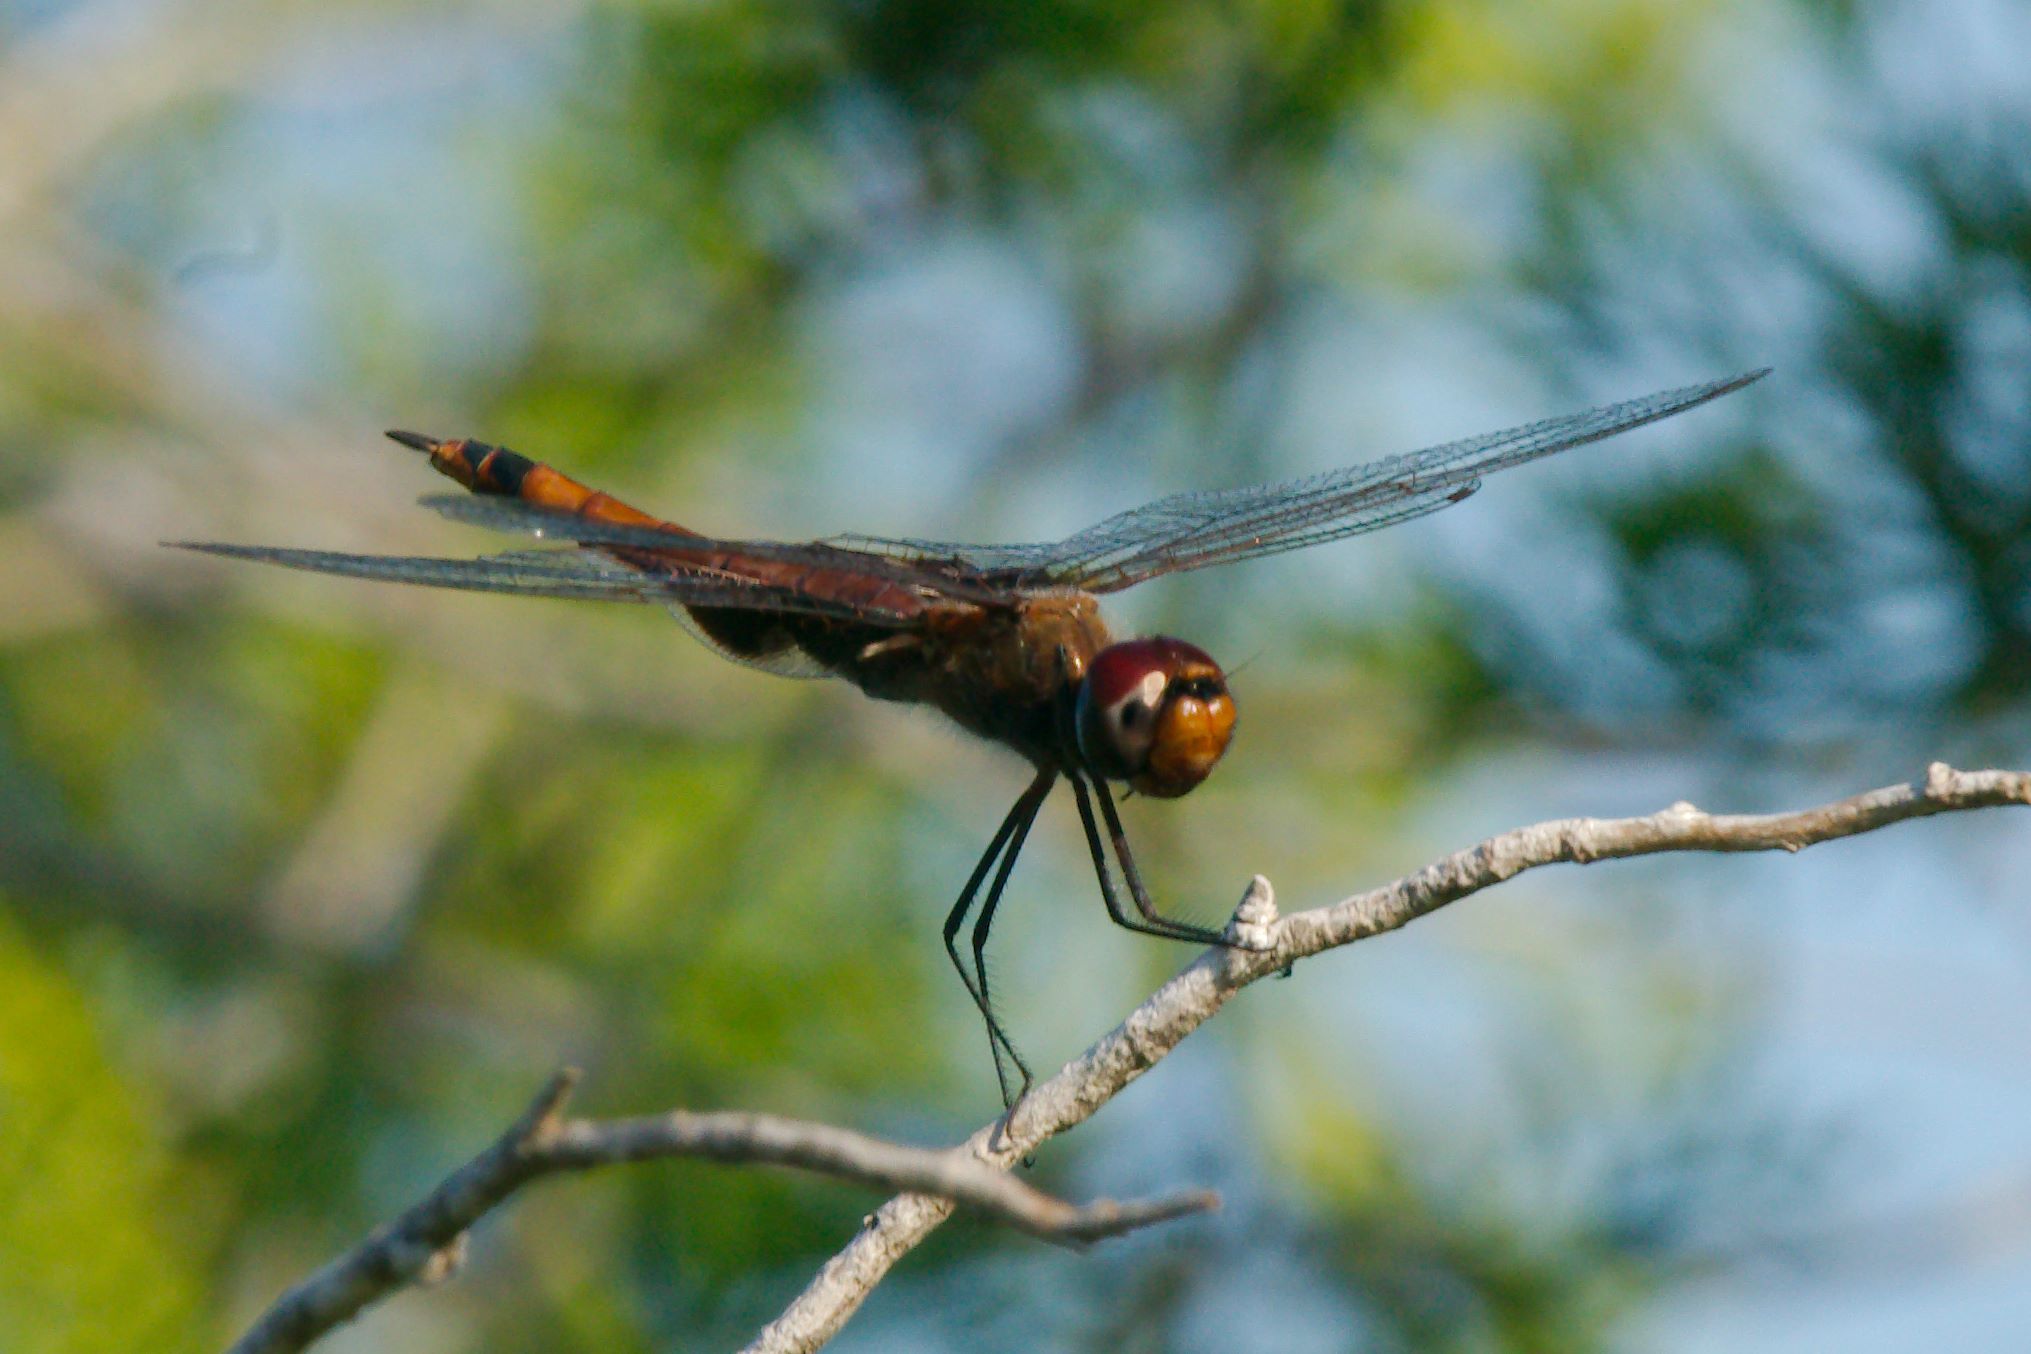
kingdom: Animalia
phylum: Arthropoda
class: Insecta
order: Odonata
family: Libellulidae
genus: Tramea
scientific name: Tramea carolina
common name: Carolina saddlebags
